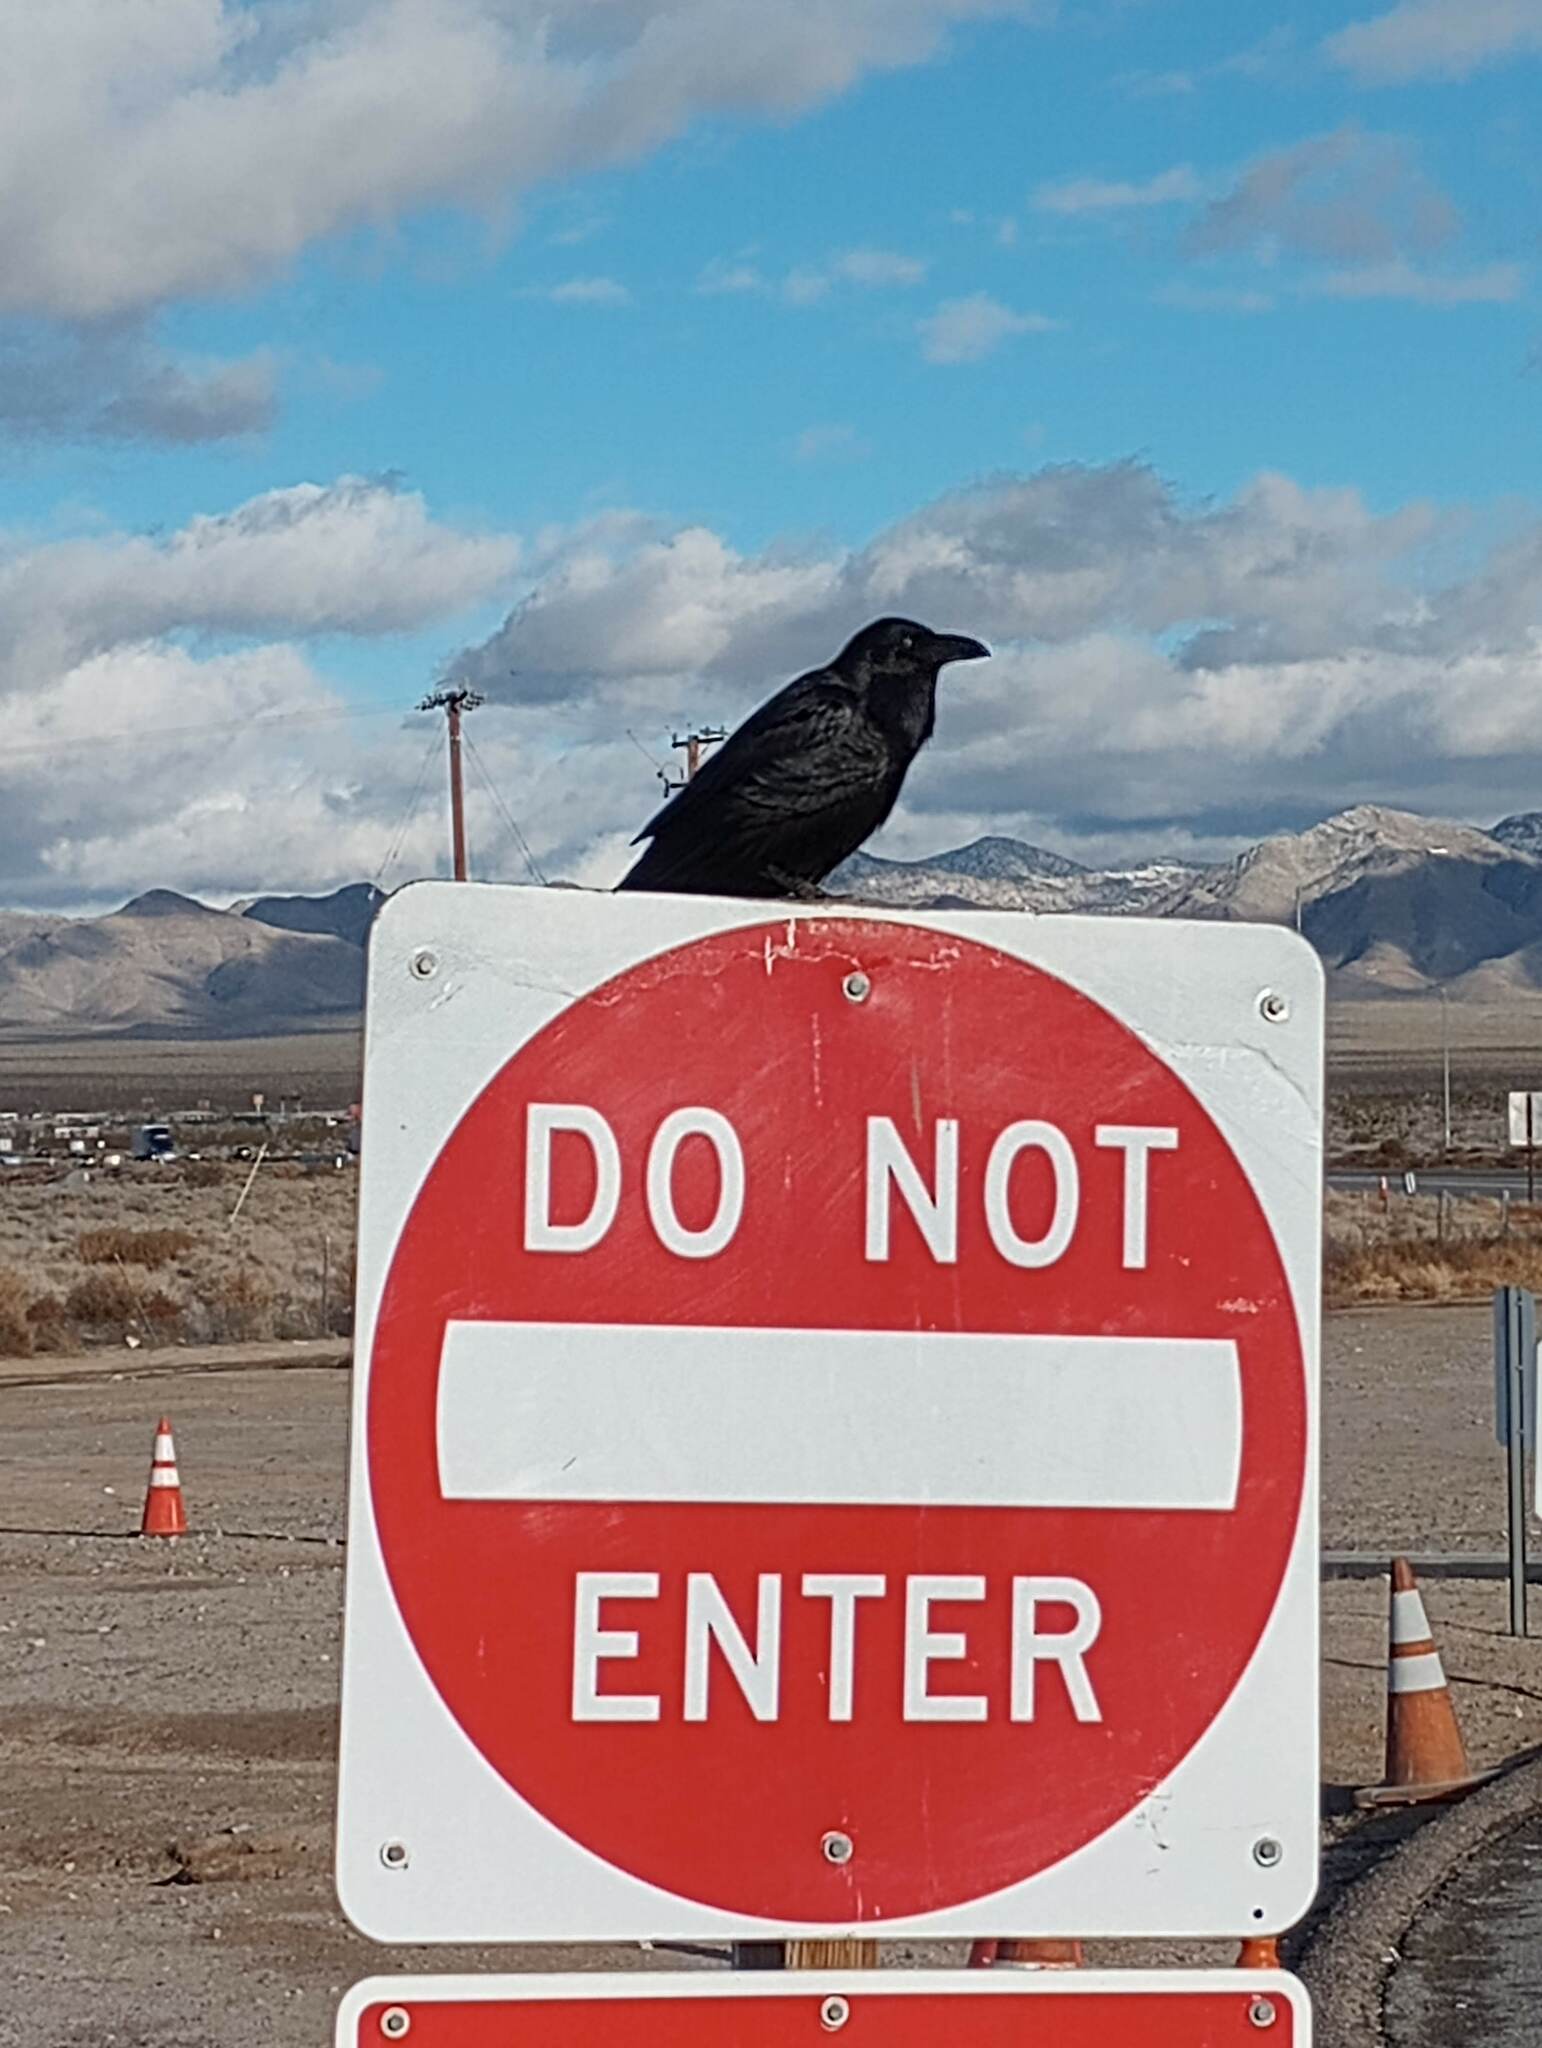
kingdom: Animalia
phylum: Chordata
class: Aves
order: Passeriformes
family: Corvidae
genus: Corvus
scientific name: Corvus corax
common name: Common raven
